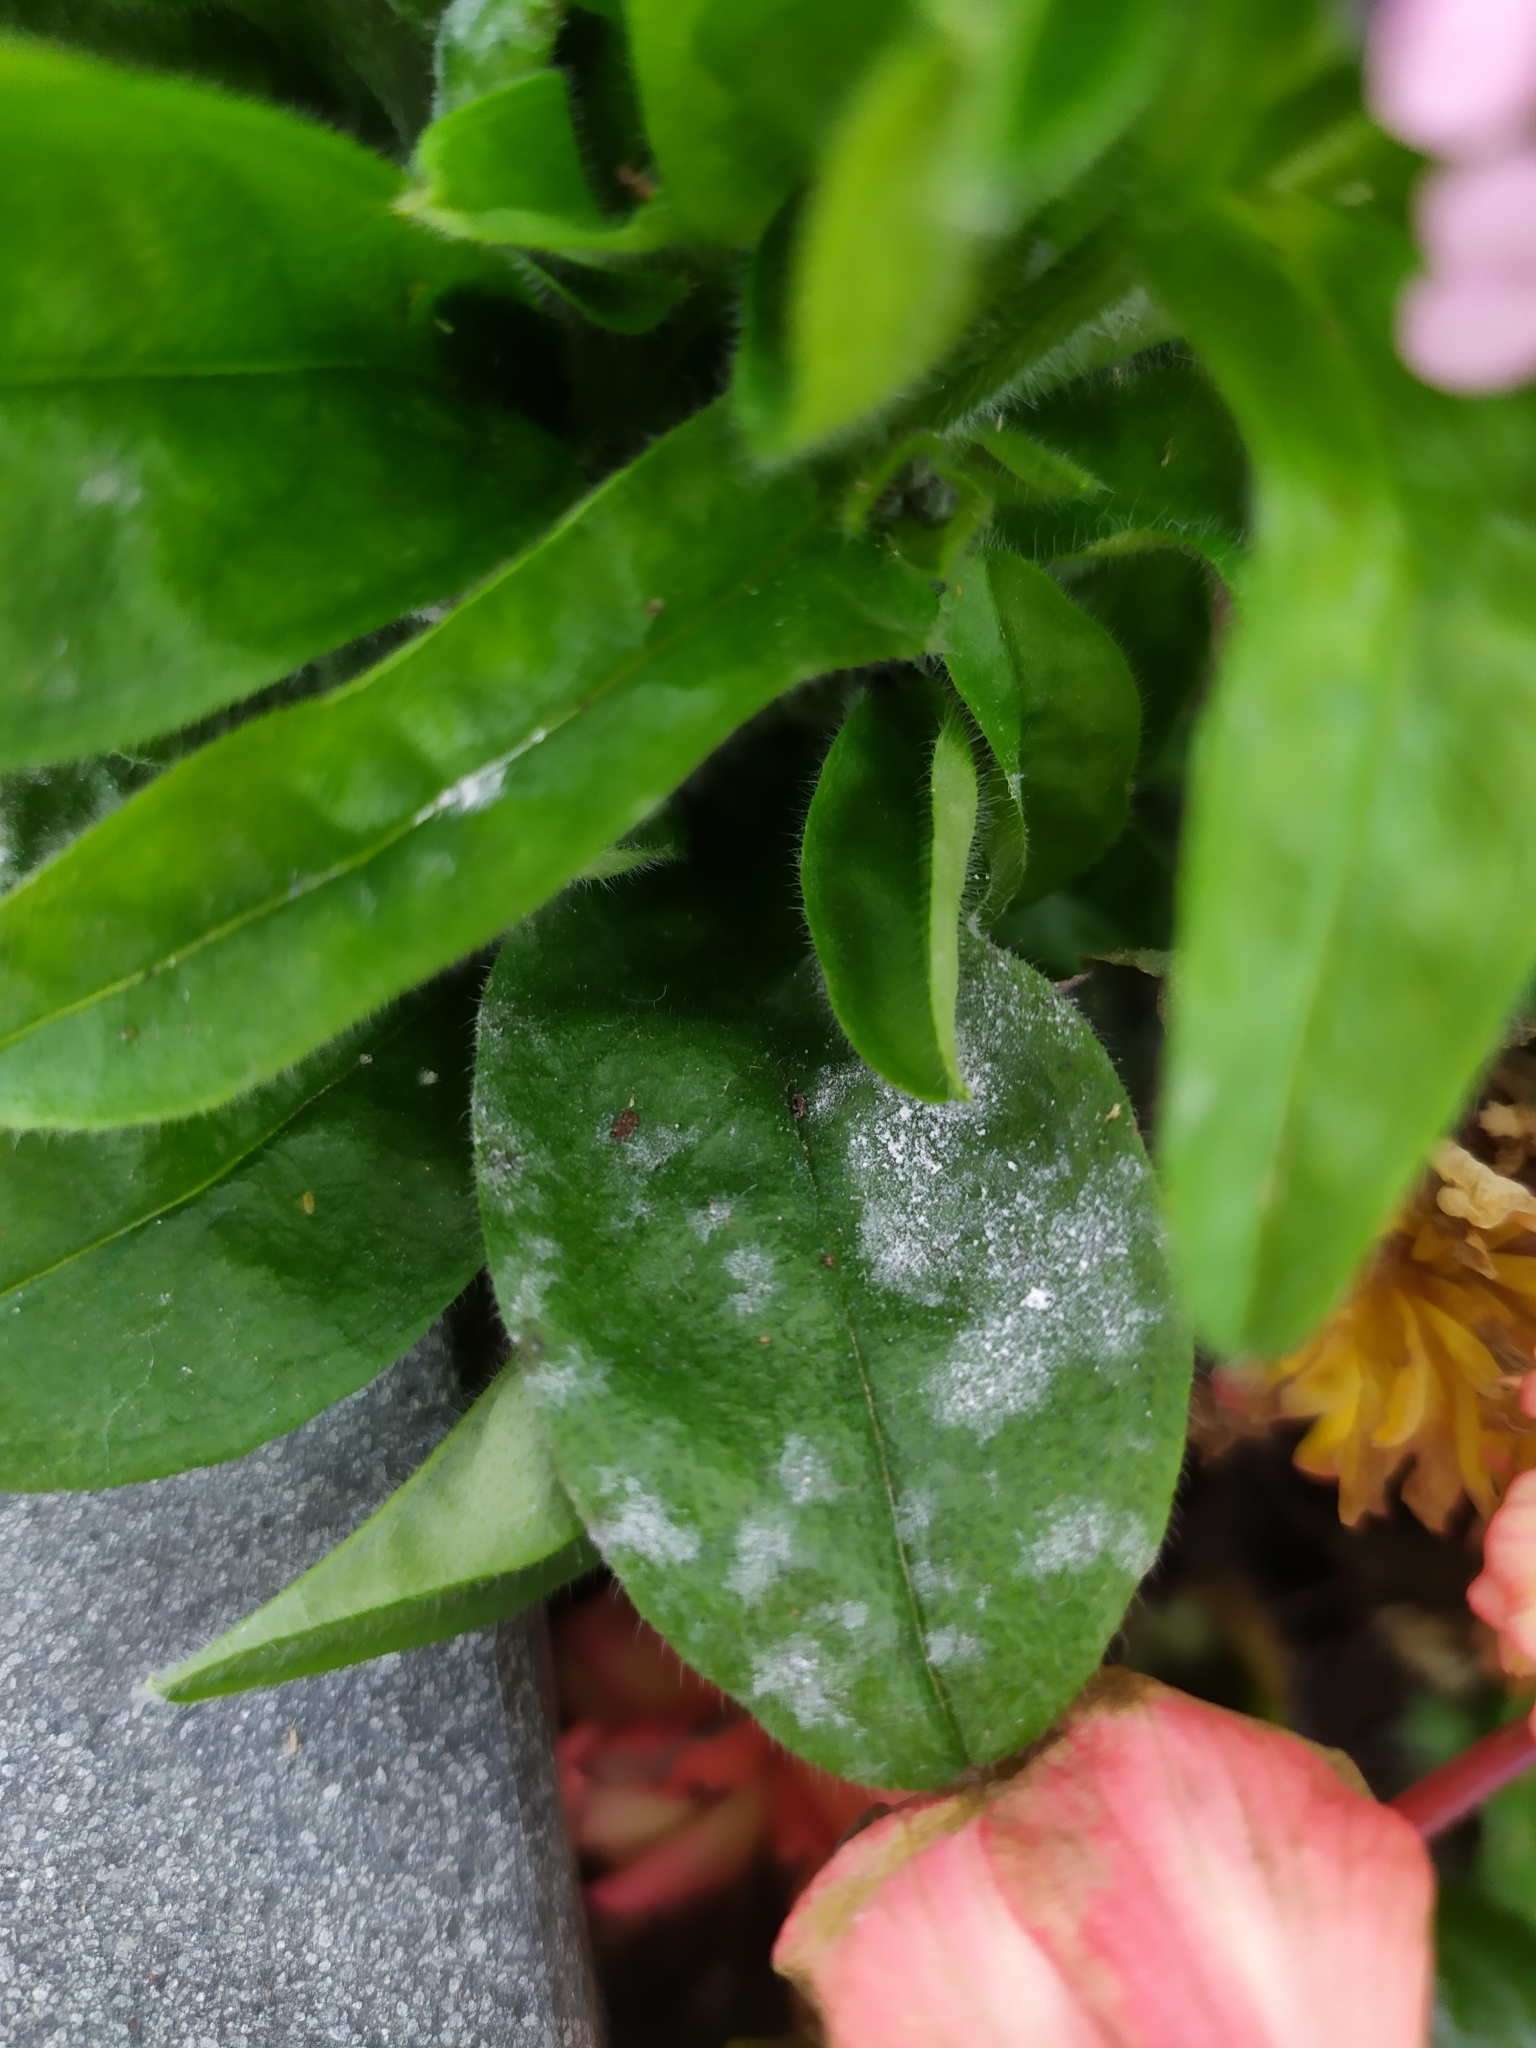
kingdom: Fungi
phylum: Ascomycota
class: Leotiomycetes
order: Helotiales
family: Erysiphaceae
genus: Golovinomyces
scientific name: Golovinomyces asperifolii
